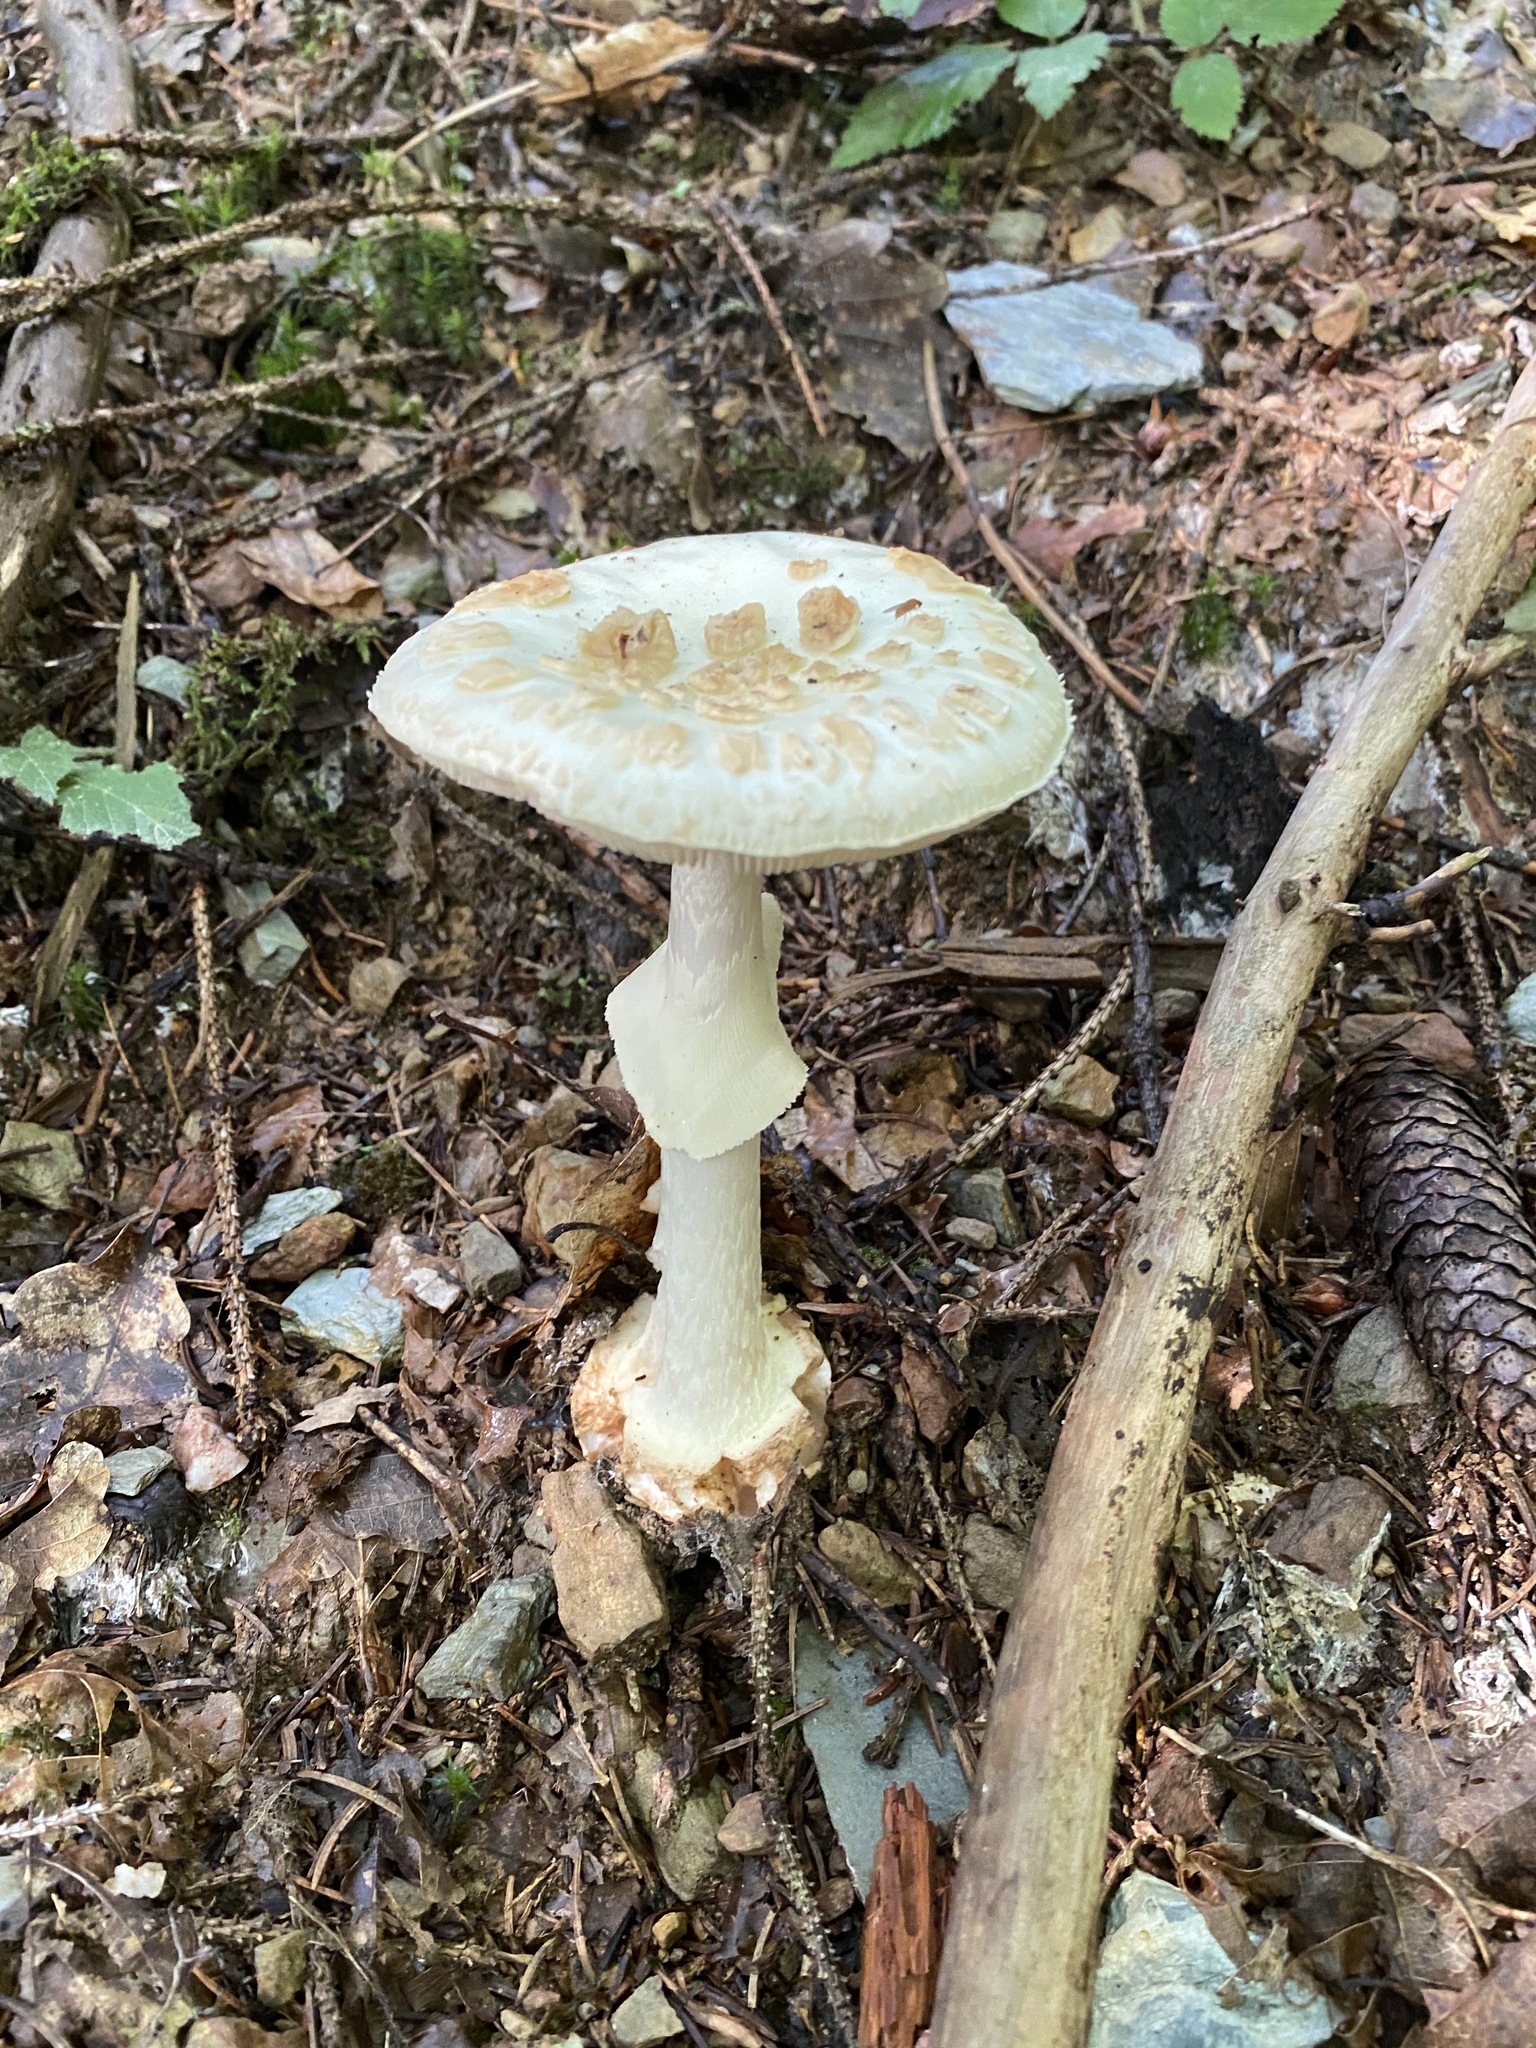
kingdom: Fungi
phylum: Basidiomycota
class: Agaricomycetes
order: Agaricales
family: Amanitaceae
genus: Amanita
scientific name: Amanita citrina
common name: False death-cap
